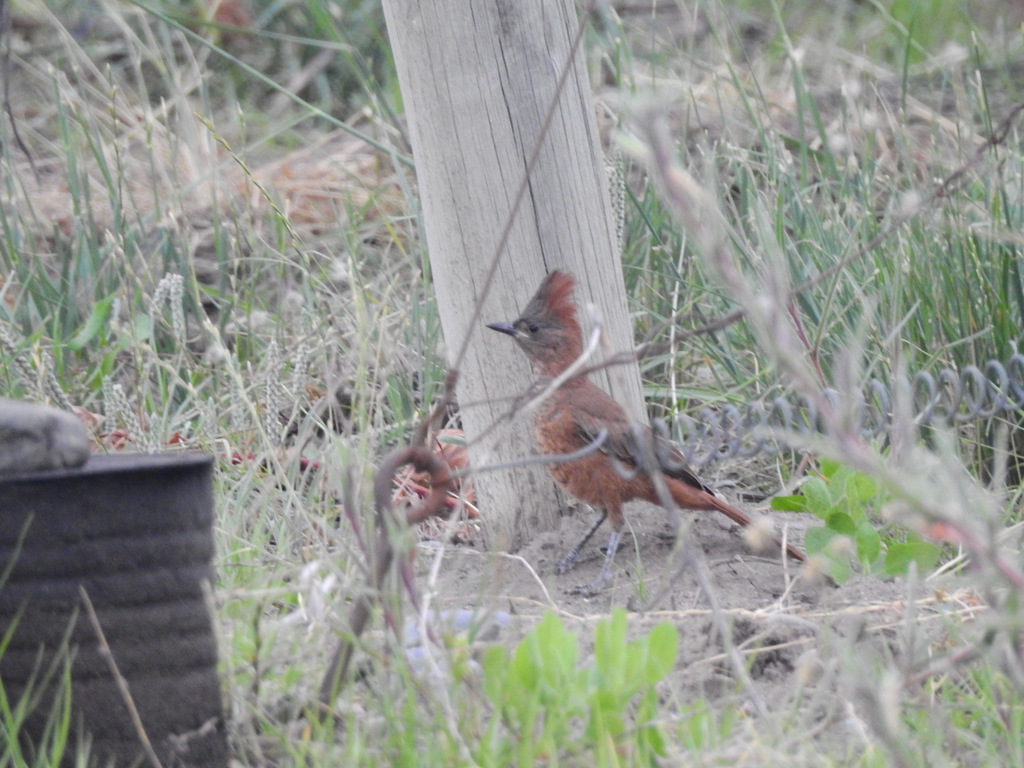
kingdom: Animalia
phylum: Chordata
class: Aves
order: Passeriformes
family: Furnariidae
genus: Pseudoseisura
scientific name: Pseudoseisura lophotes
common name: Brown cacholote
